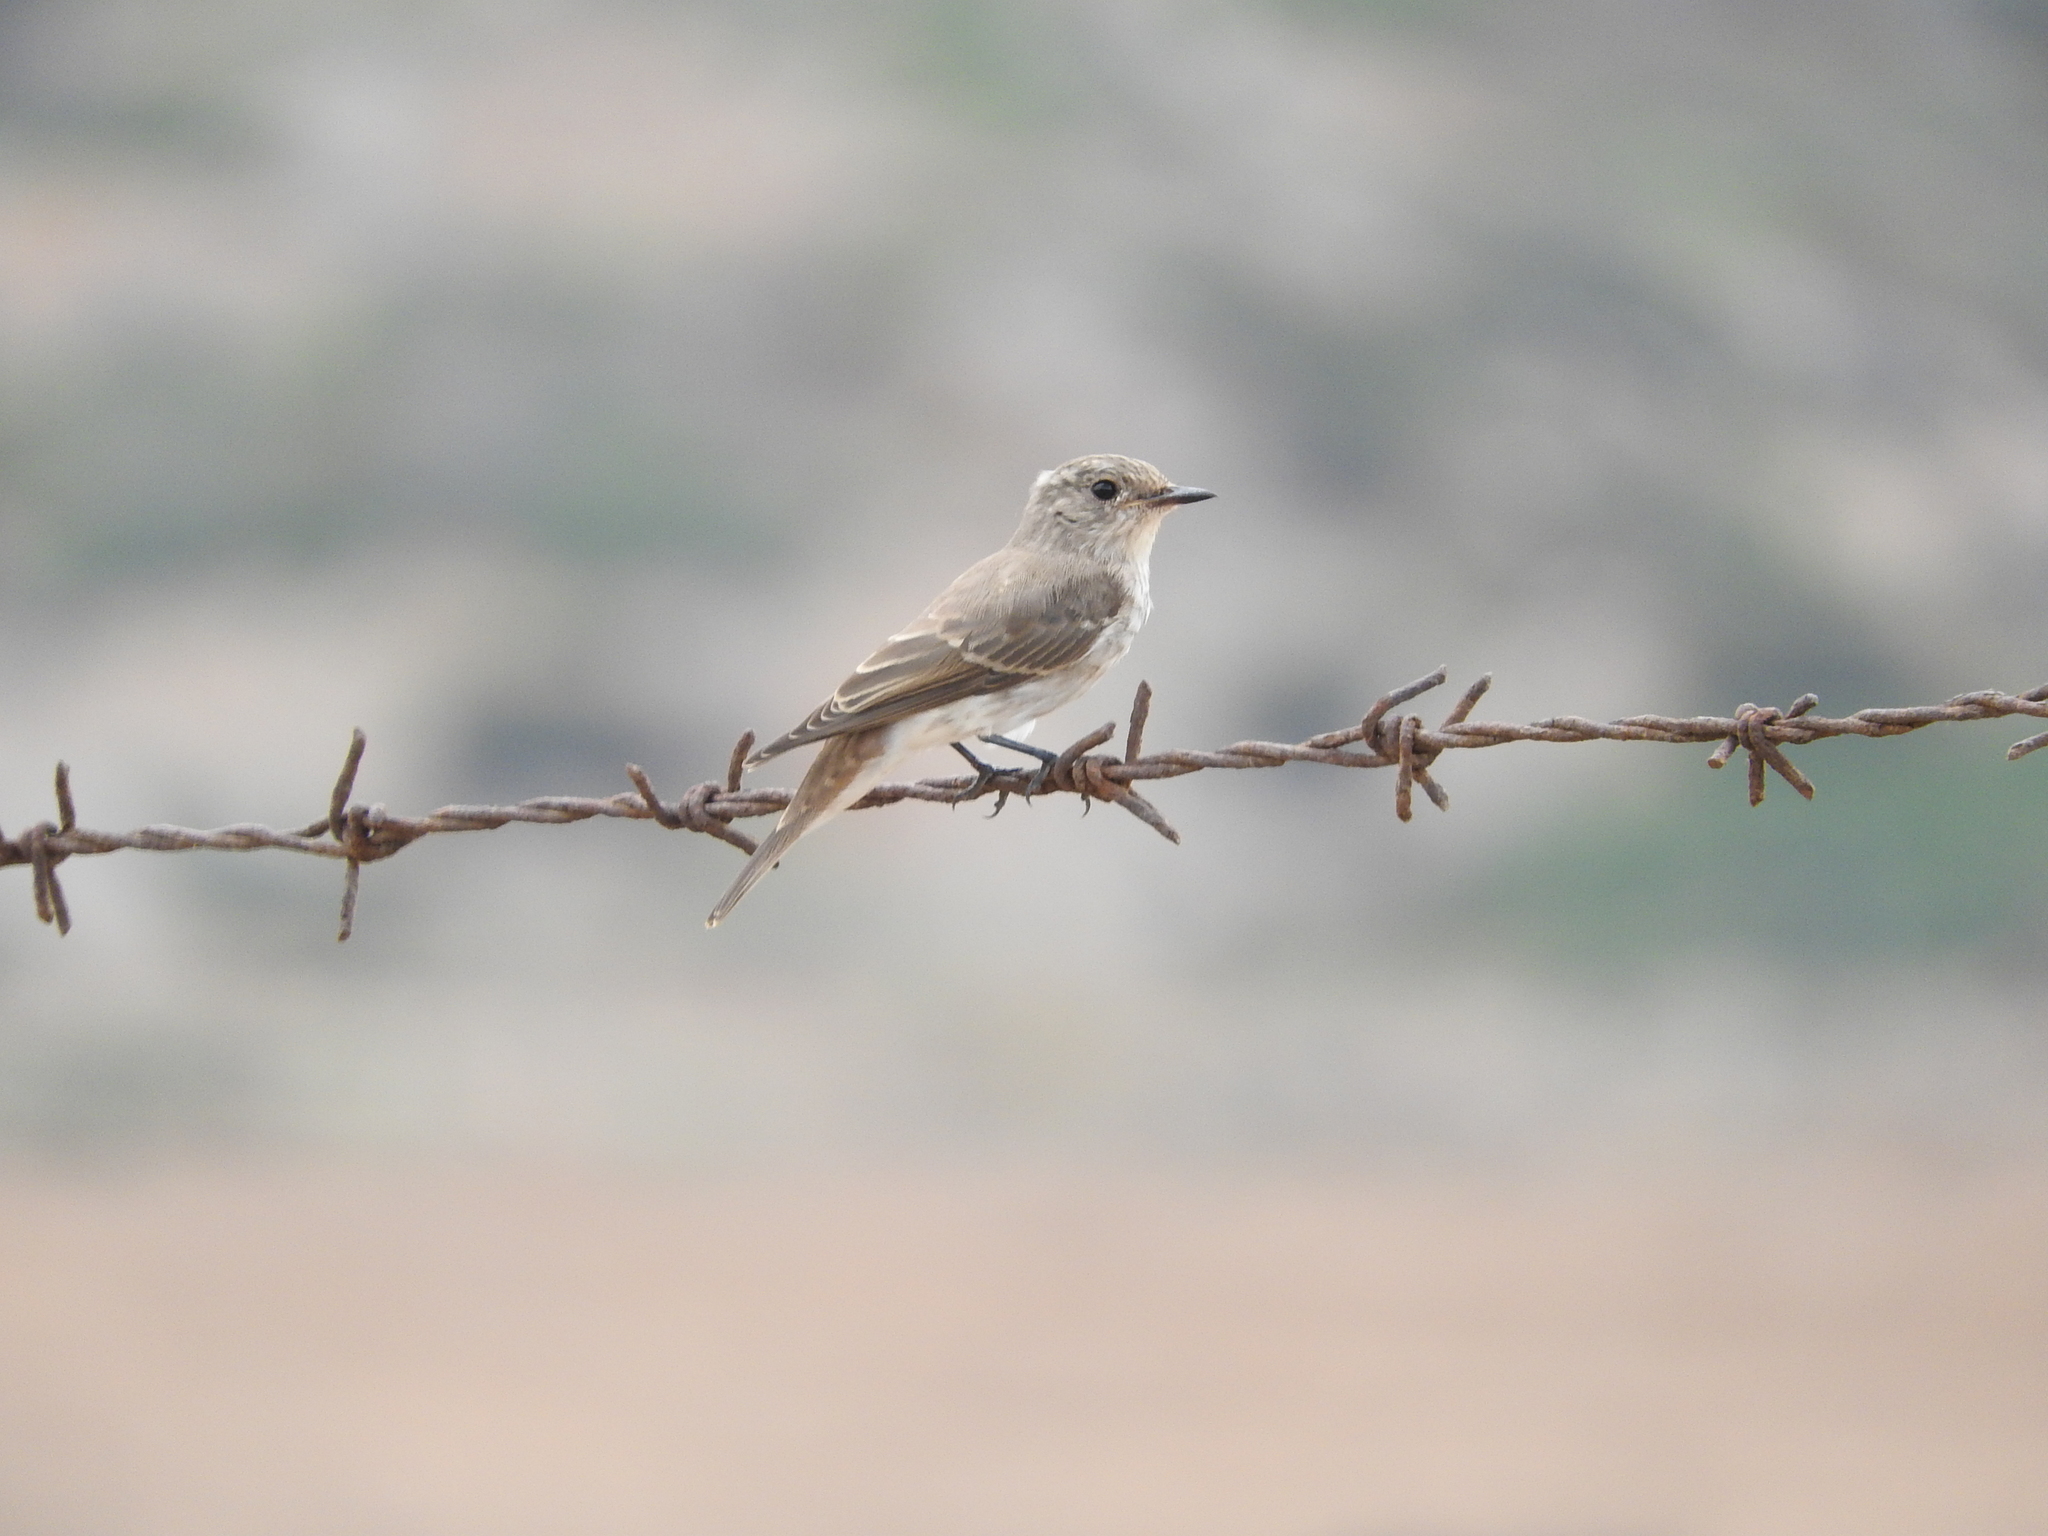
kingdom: Animalia
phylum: Chordata
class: Aves
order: Passeriformes
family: Muscicapidae
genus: Muscicapa
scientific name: Muscicapa striata
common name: Spotted flycatcher
